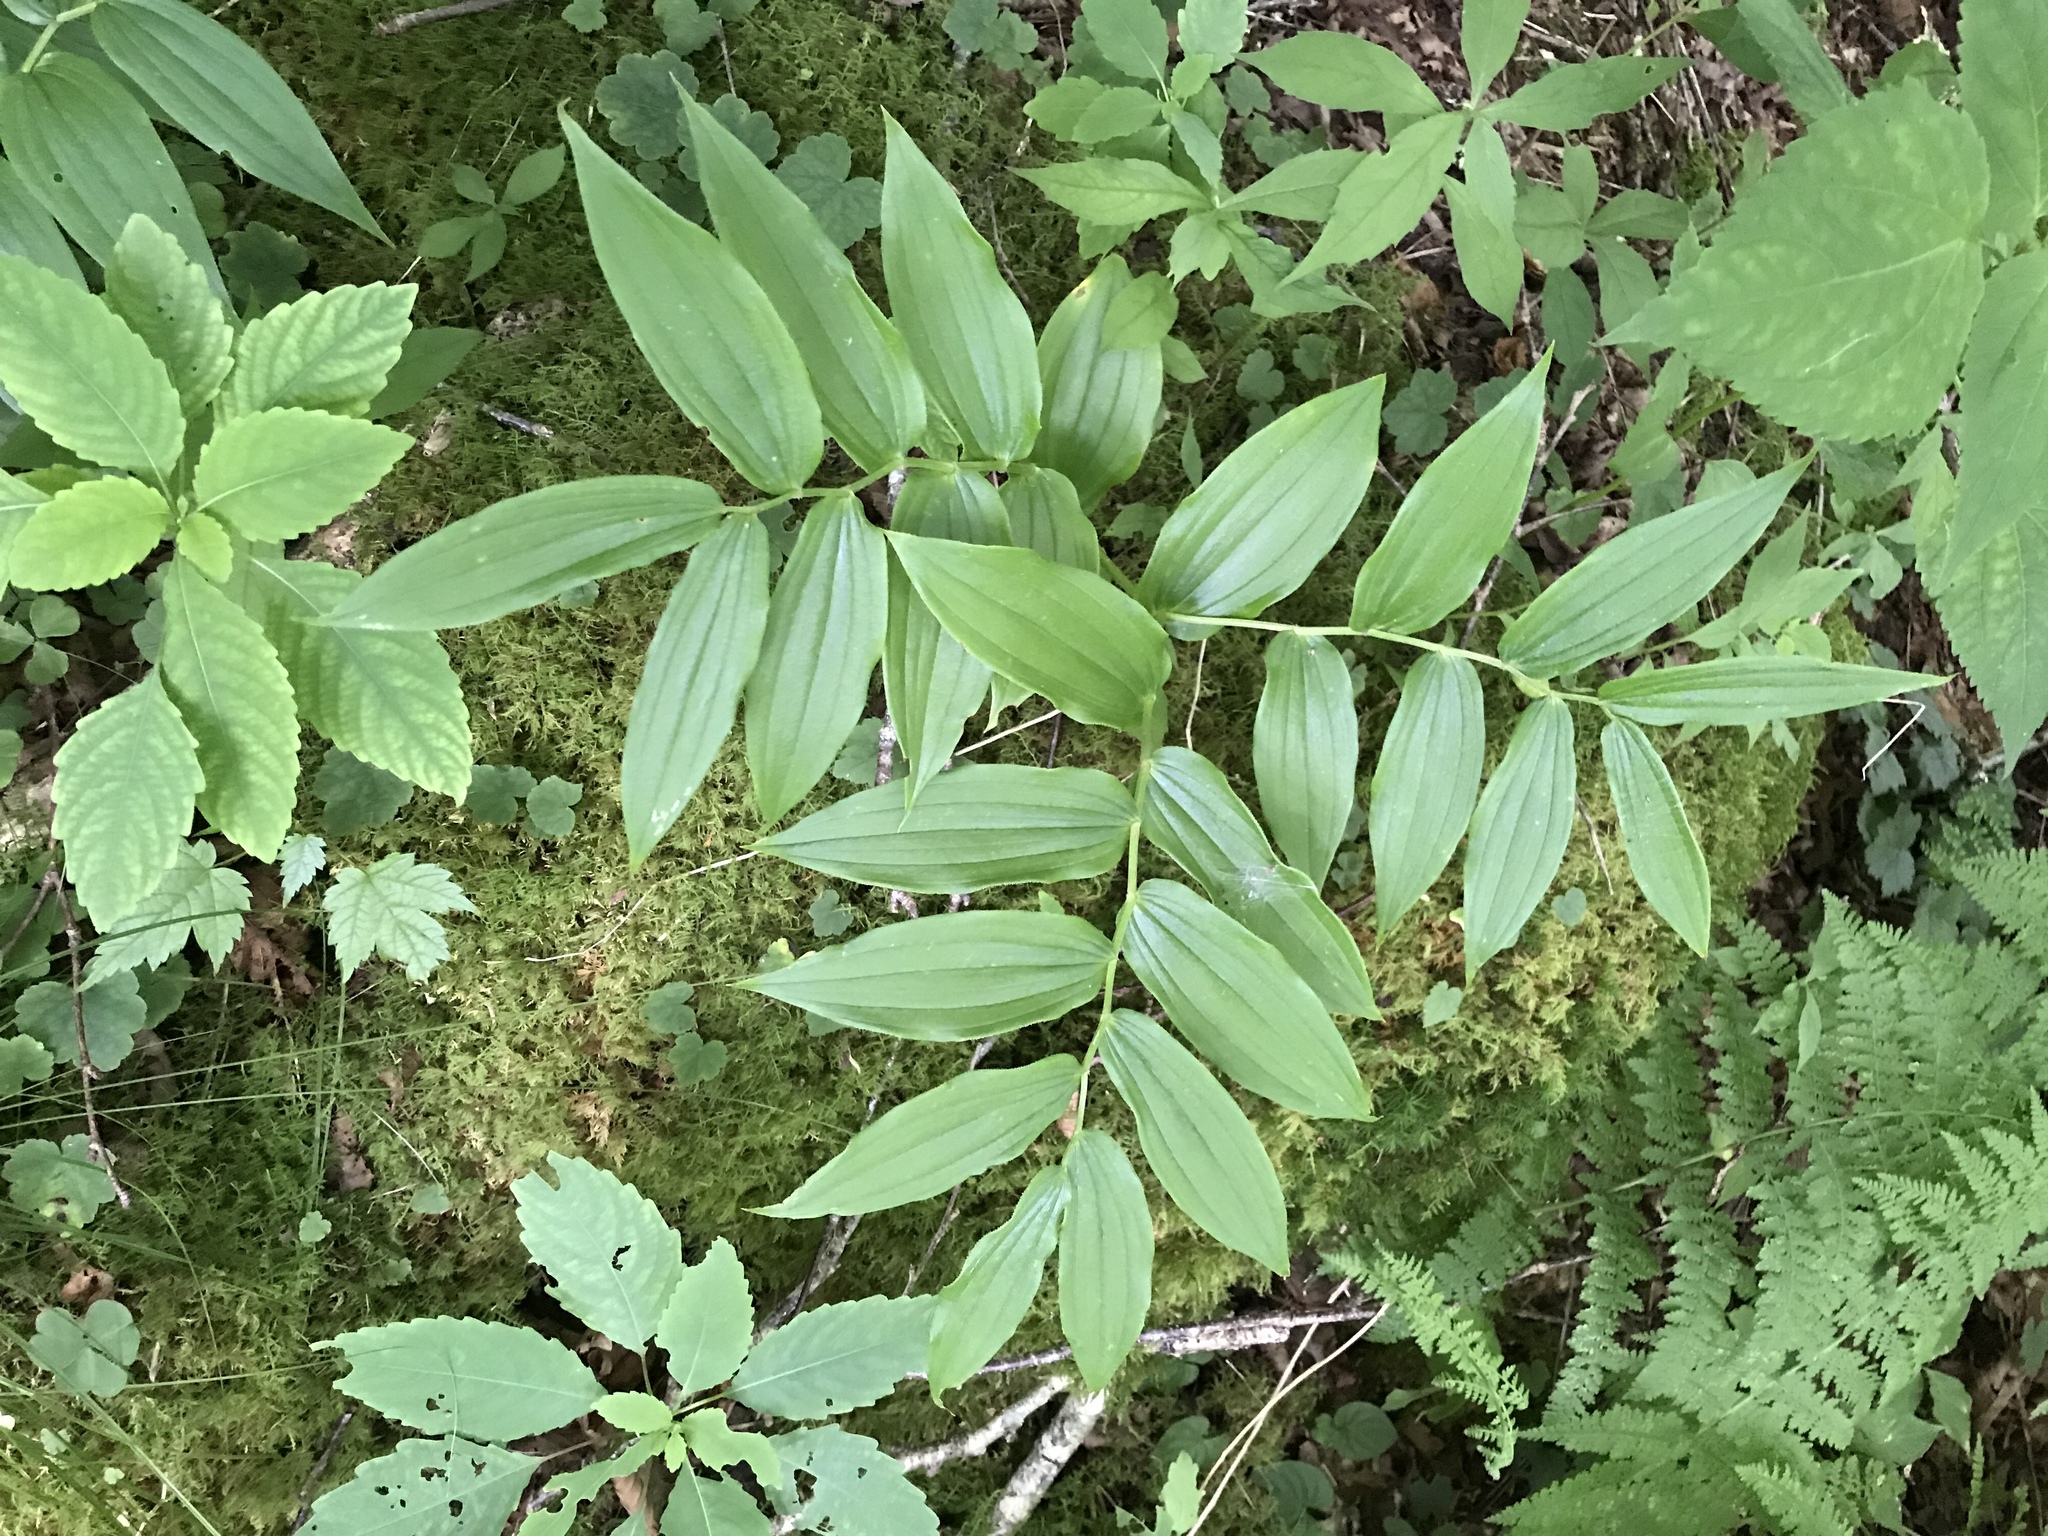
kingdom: Plantae
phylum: Tracheophyta
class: Liliopsida
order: Liliales
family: Liliaceae
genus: Streptopus
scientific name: Streptopus lanceolatus
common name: Rose mandarin
